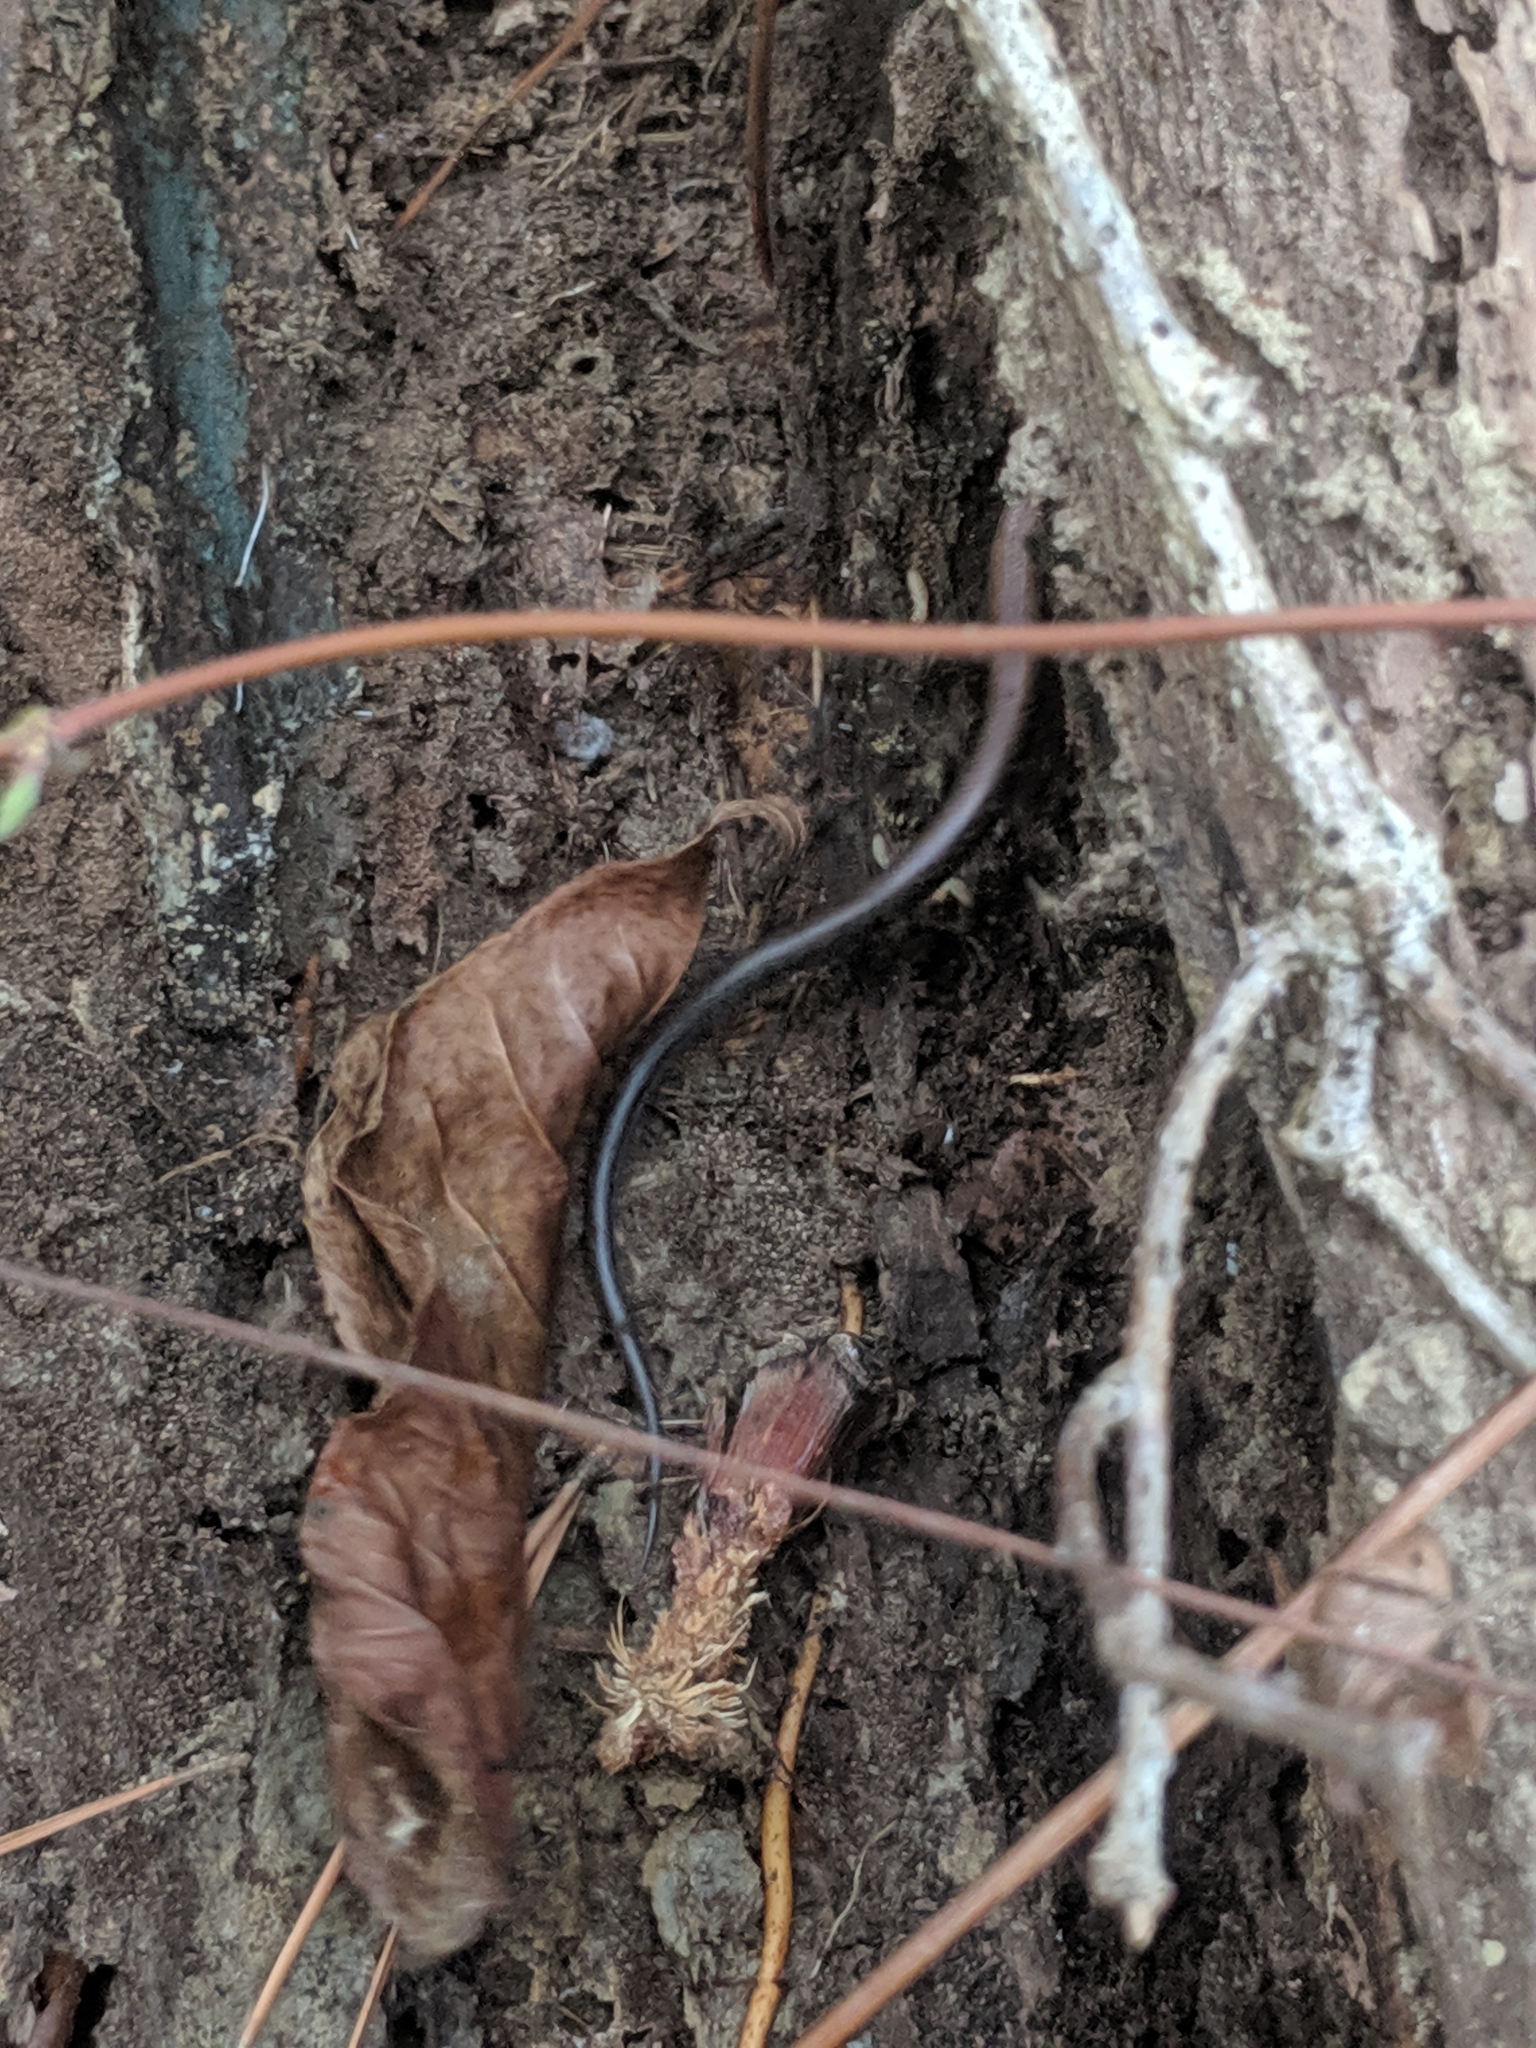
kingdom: Animalia
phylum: Chordata
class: Squamata
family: Scincidae
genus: Scincella
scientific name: Scincella lateralis
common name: Ground skink
